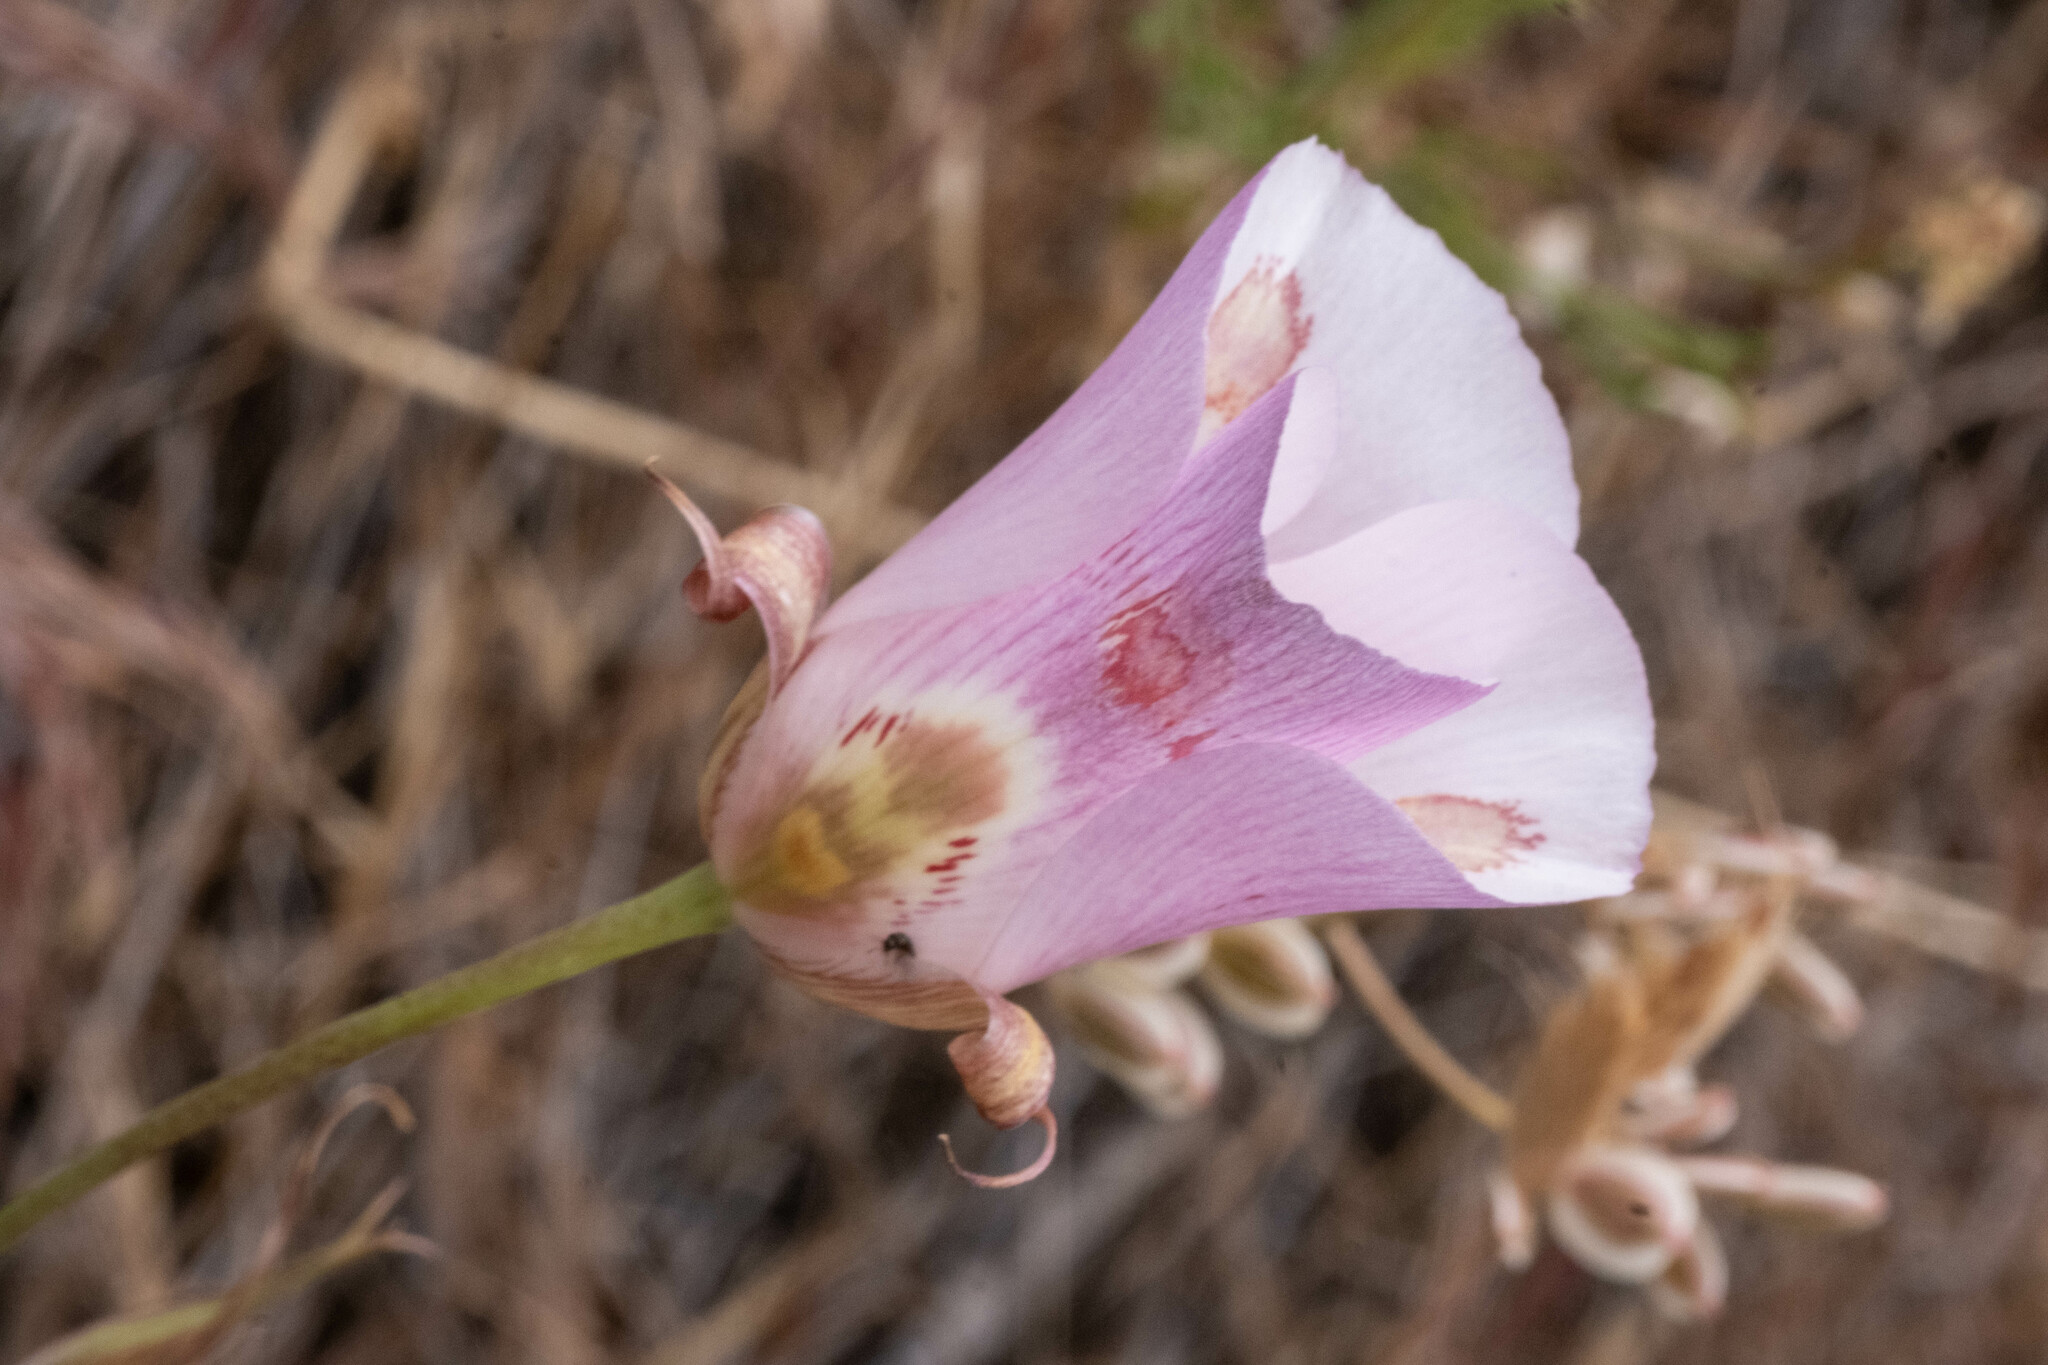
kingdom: Plantae
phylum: Tracheophyta
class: Liliopsida
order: Liliales
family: Liliaceae
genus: Calochortus
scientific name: Calochortus venustus
